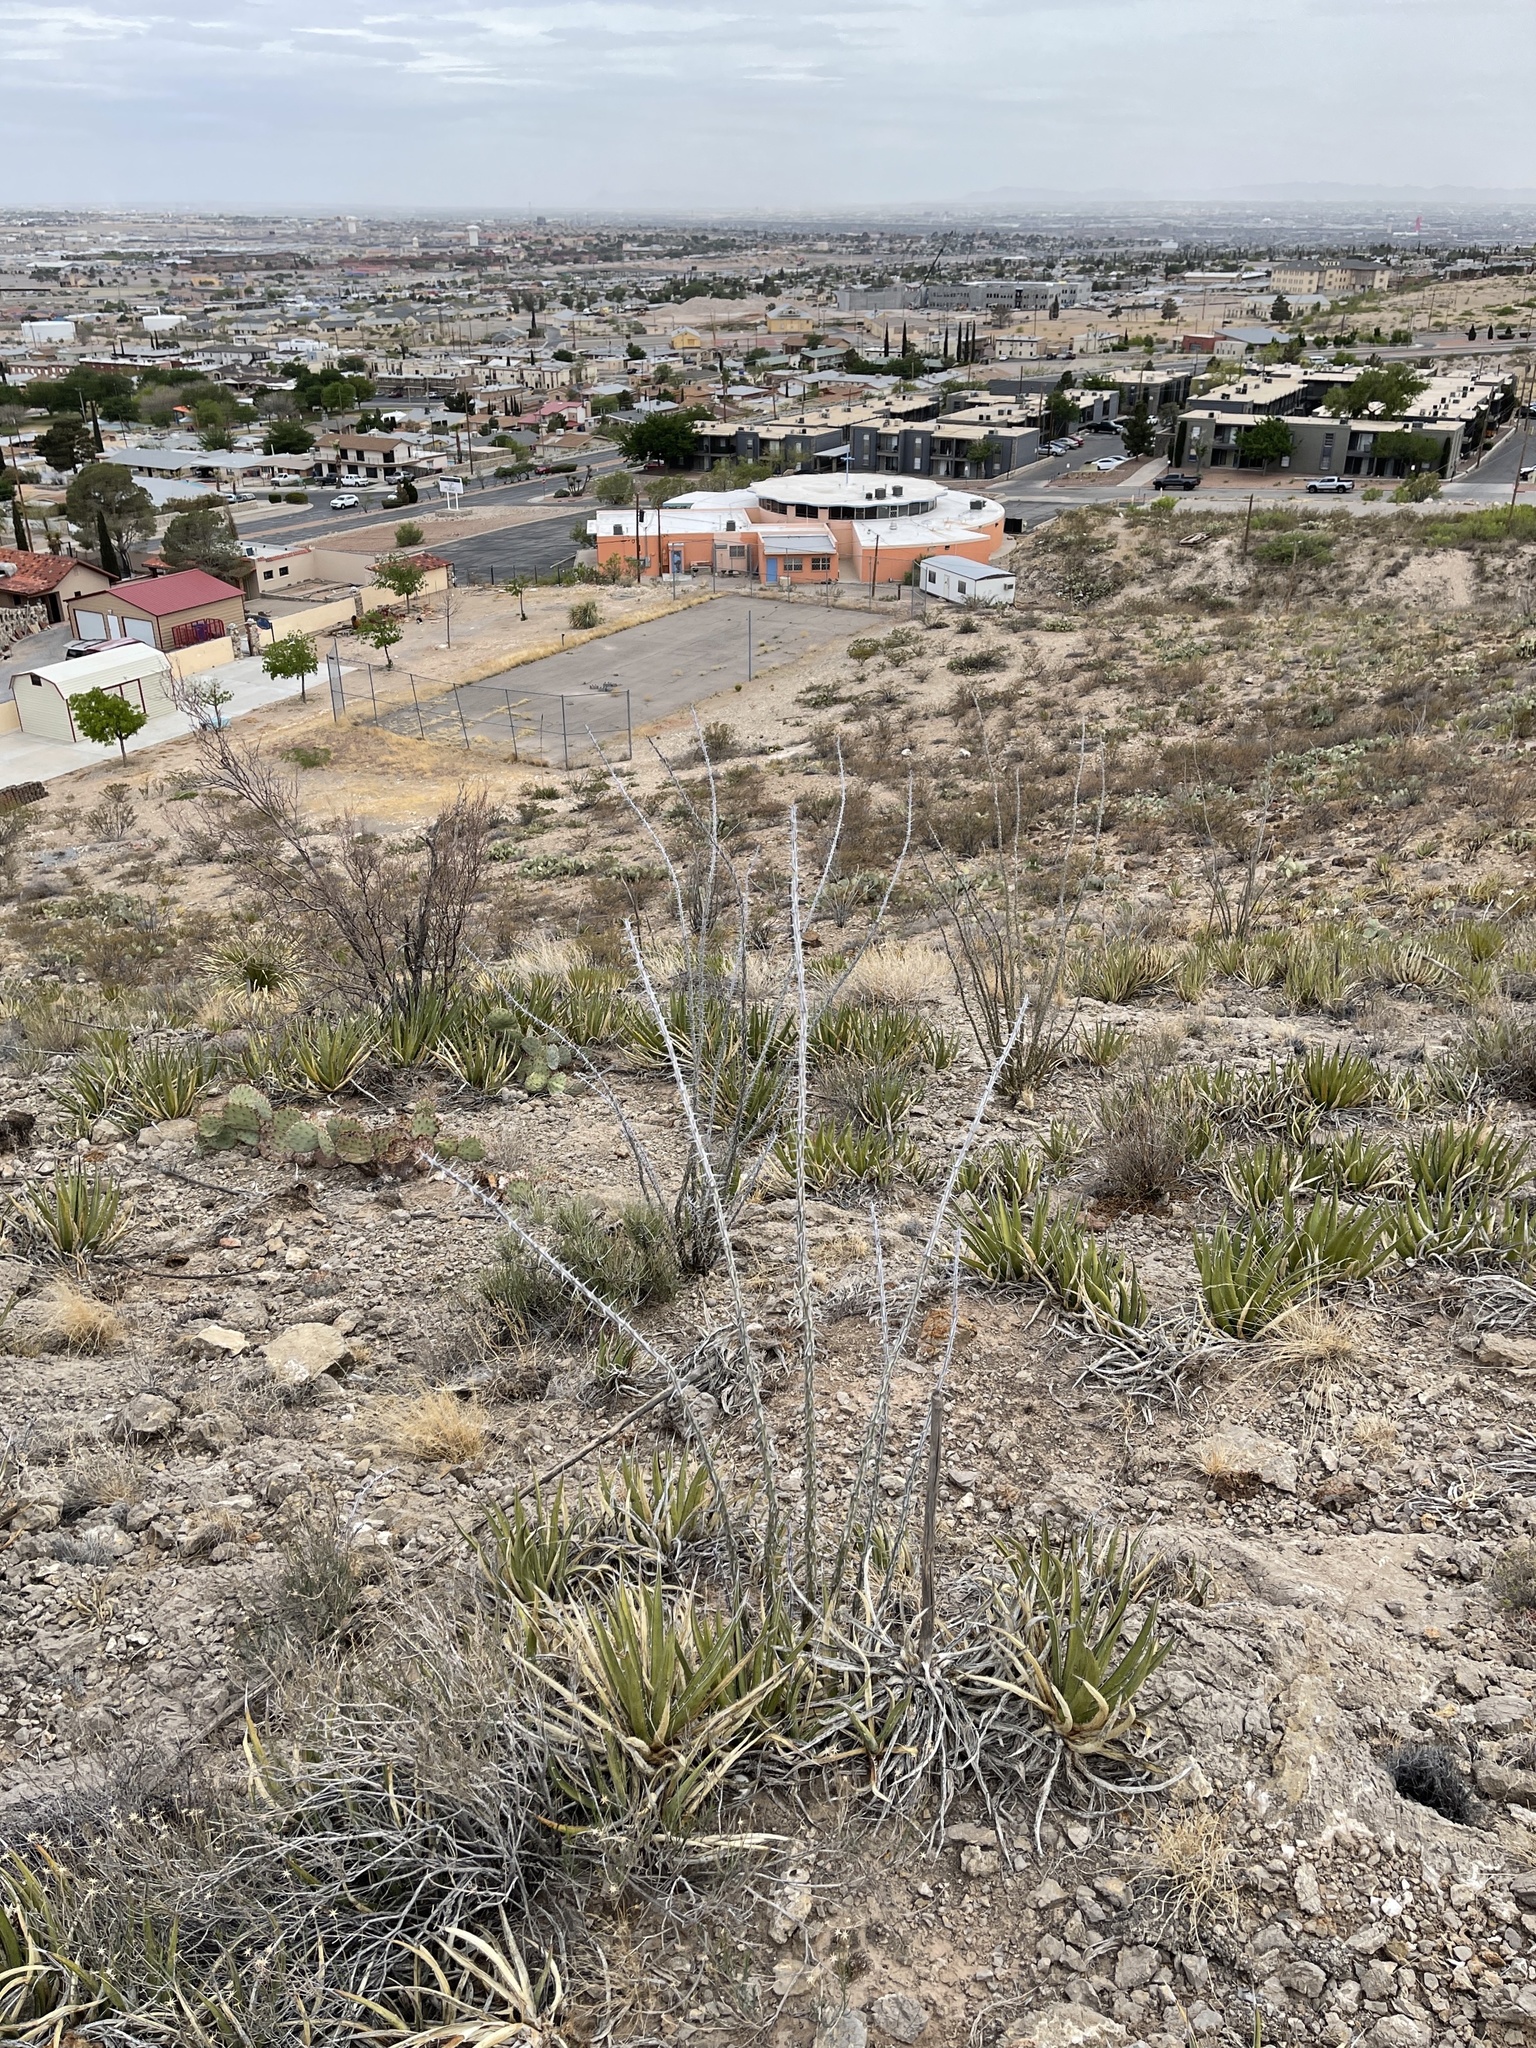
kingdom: Plantae
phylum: Tracheophyta
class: Magnoliopsida
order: Ericales
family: Fouquieriaceae
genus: Fouquieria
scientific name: Fouquieria splendens
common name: Vine-cactus
